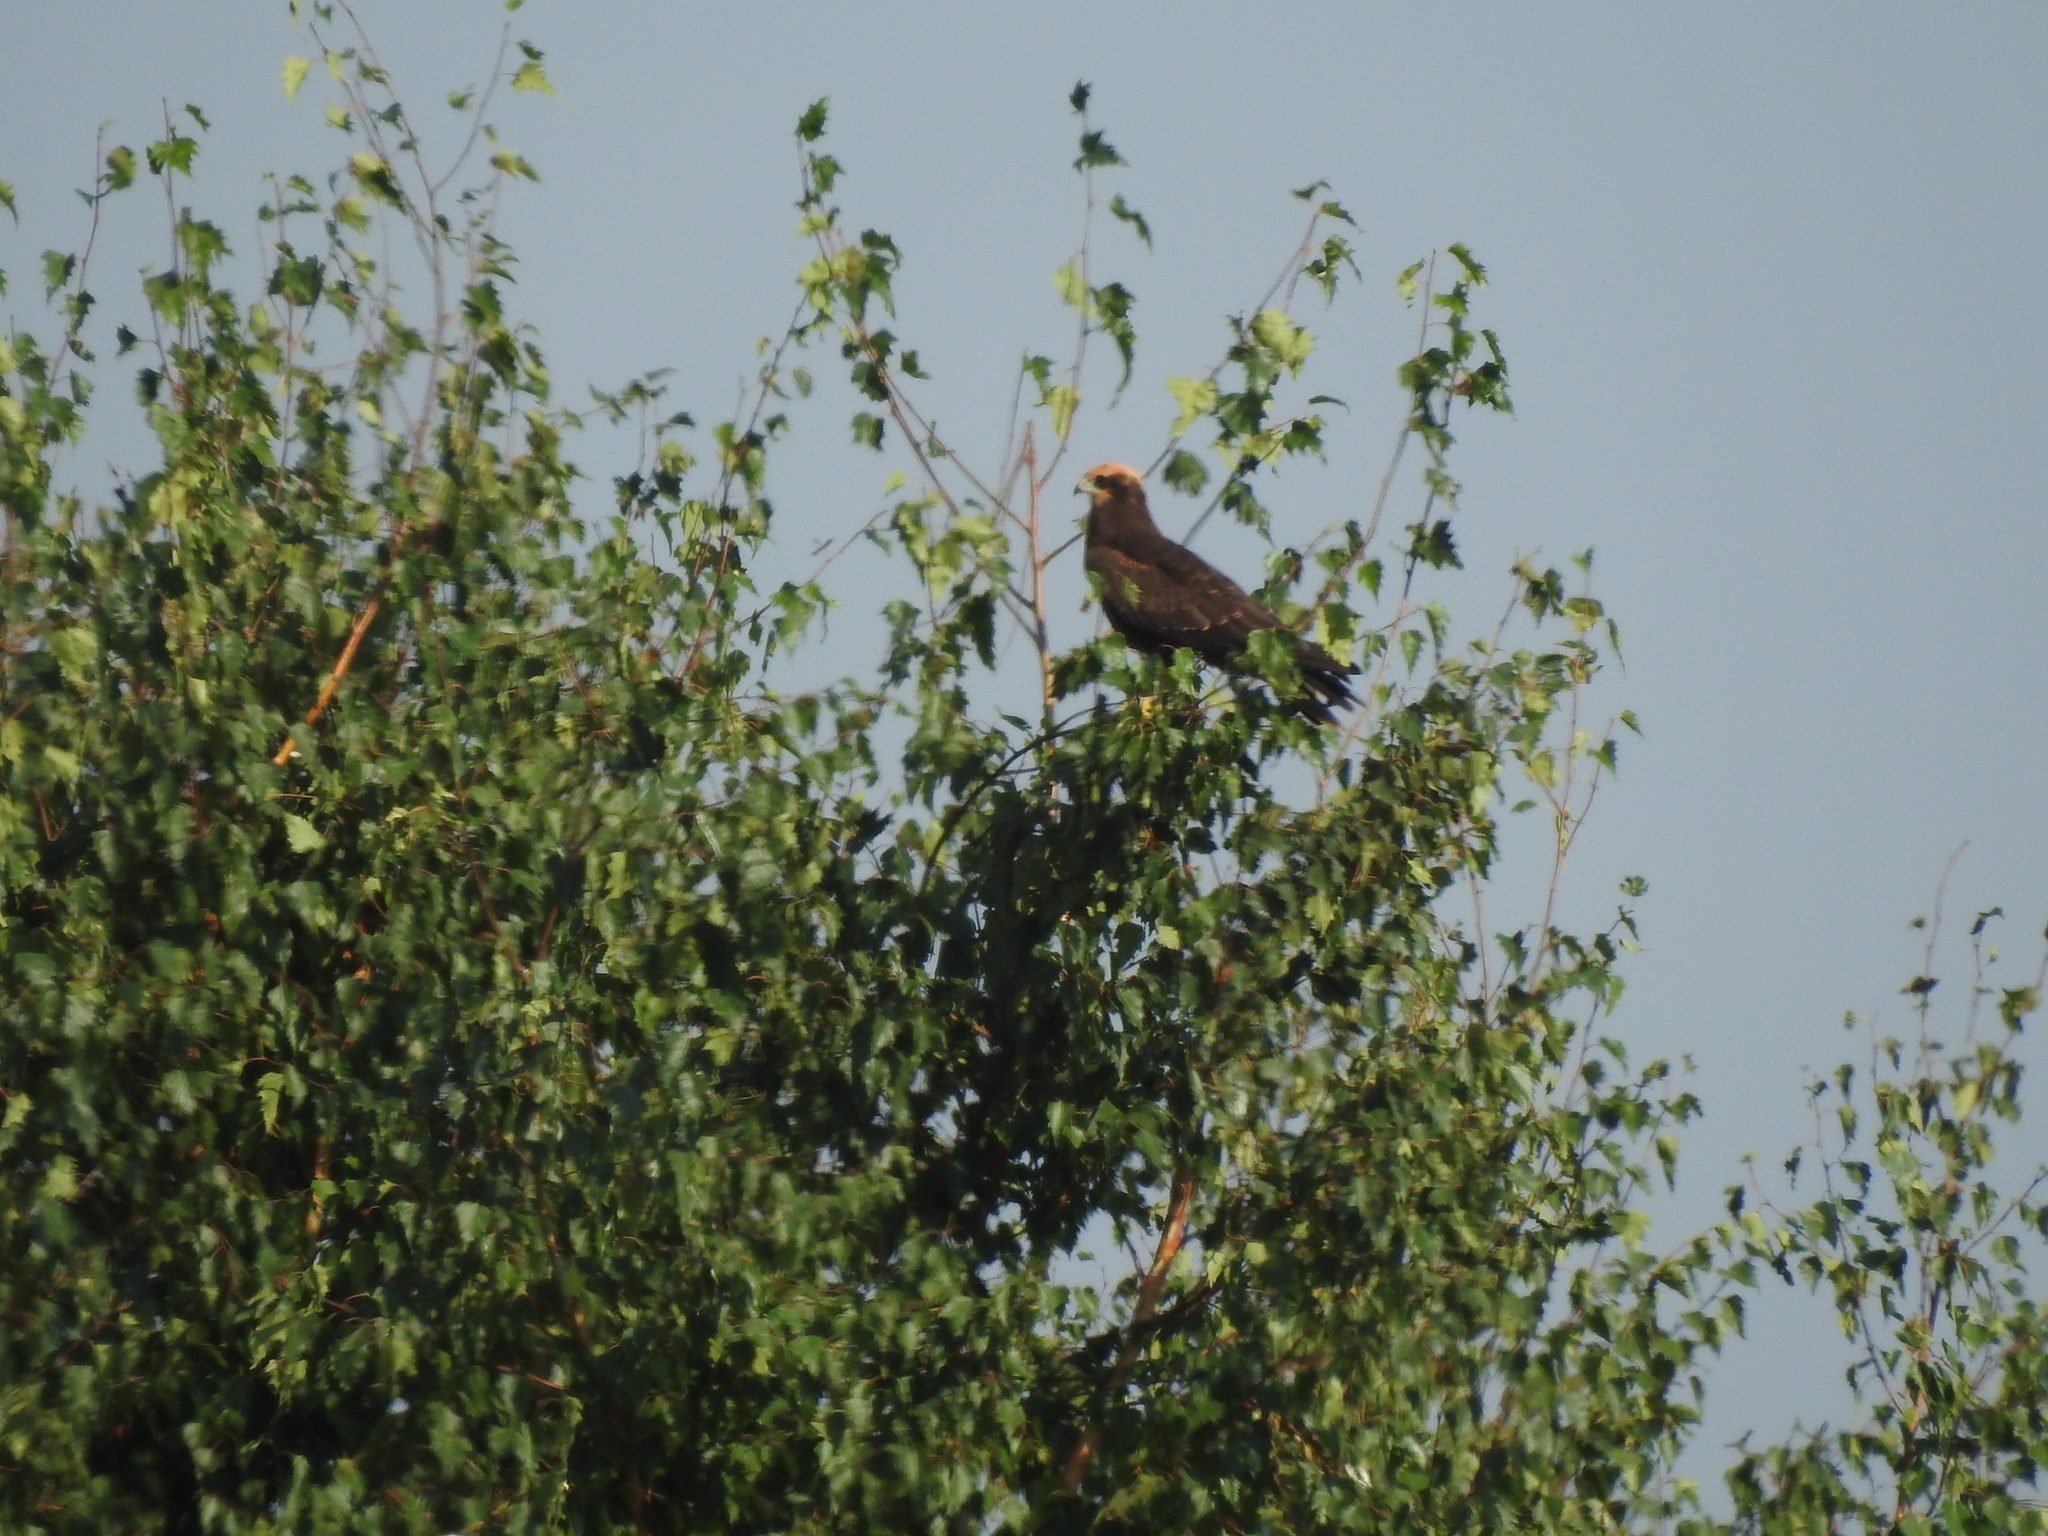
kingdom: Animalia
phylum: Chordata
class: Aves
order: Accipitriformes
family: Accipitridae
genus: Circus
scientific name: Circus aeruginosus
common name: Western marsh harrier
